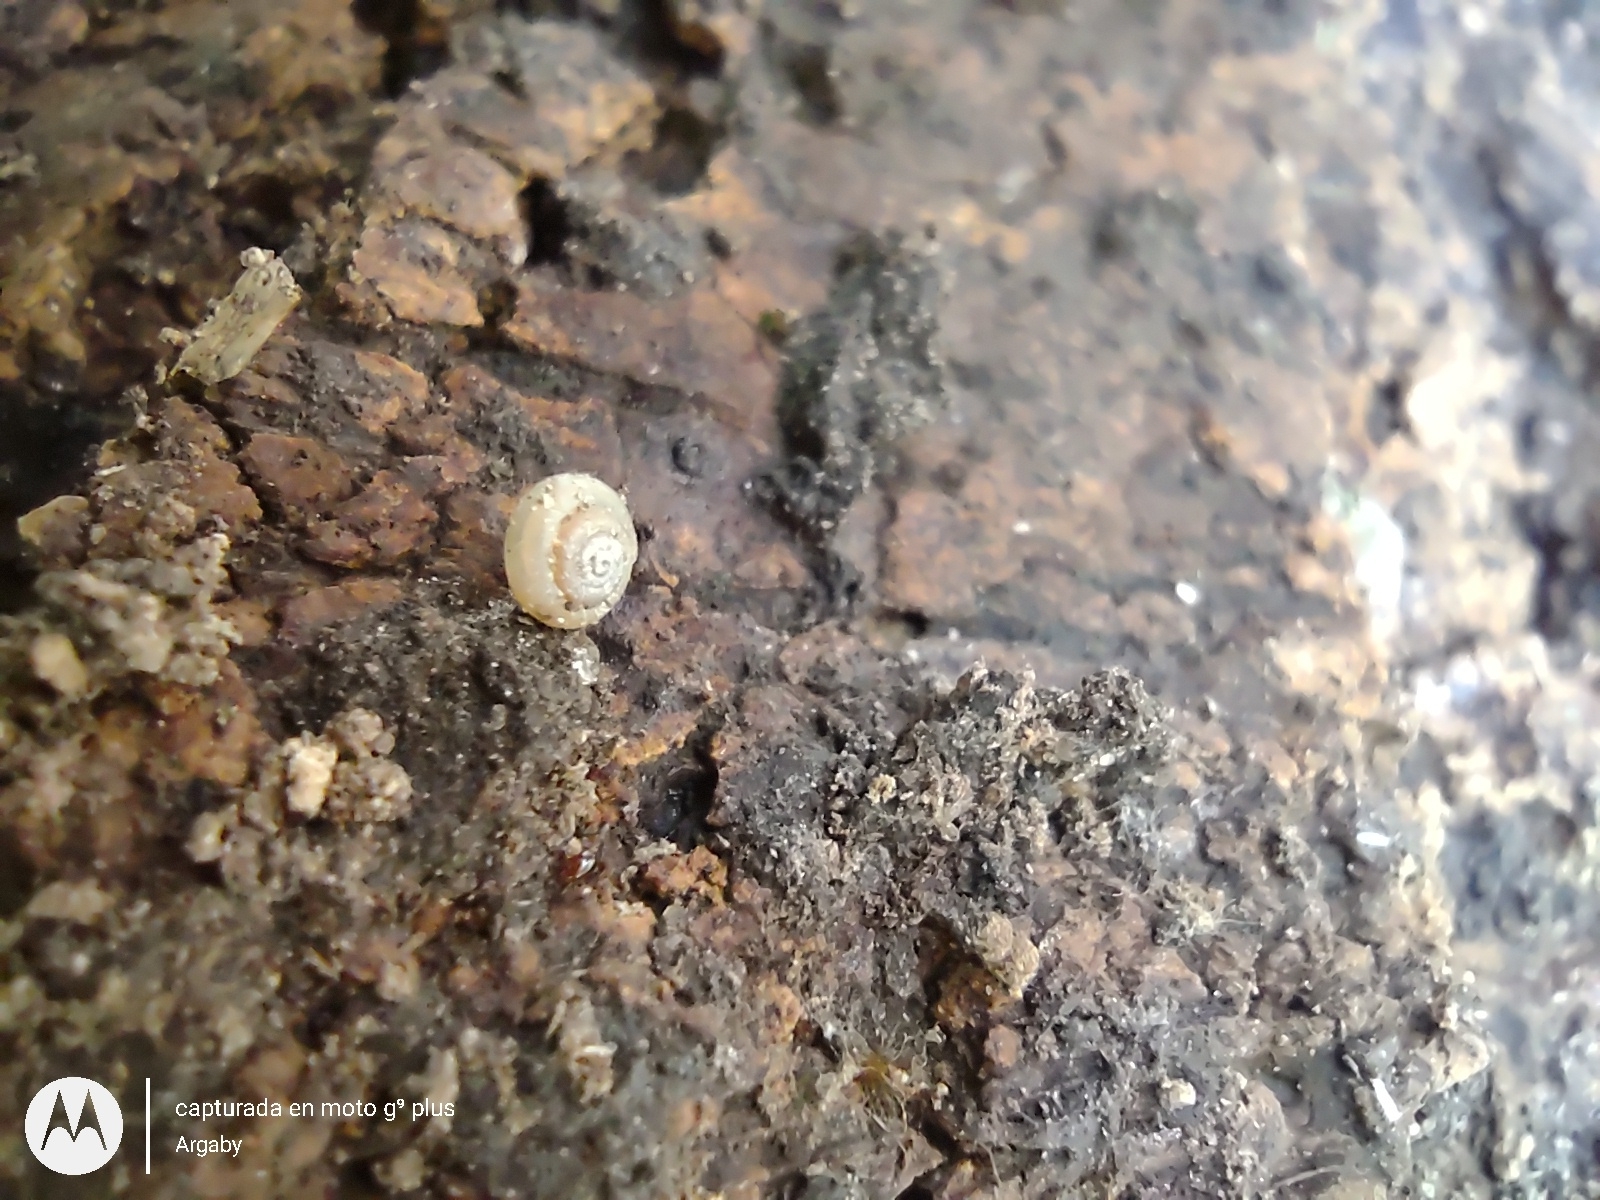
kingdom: Animalia
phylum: Mollusca
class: Gastropoda
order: Stylommatophora
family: Pristilomatidae
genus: Hawaiia
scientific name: Hawaiia minuscula
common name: Minute gem
